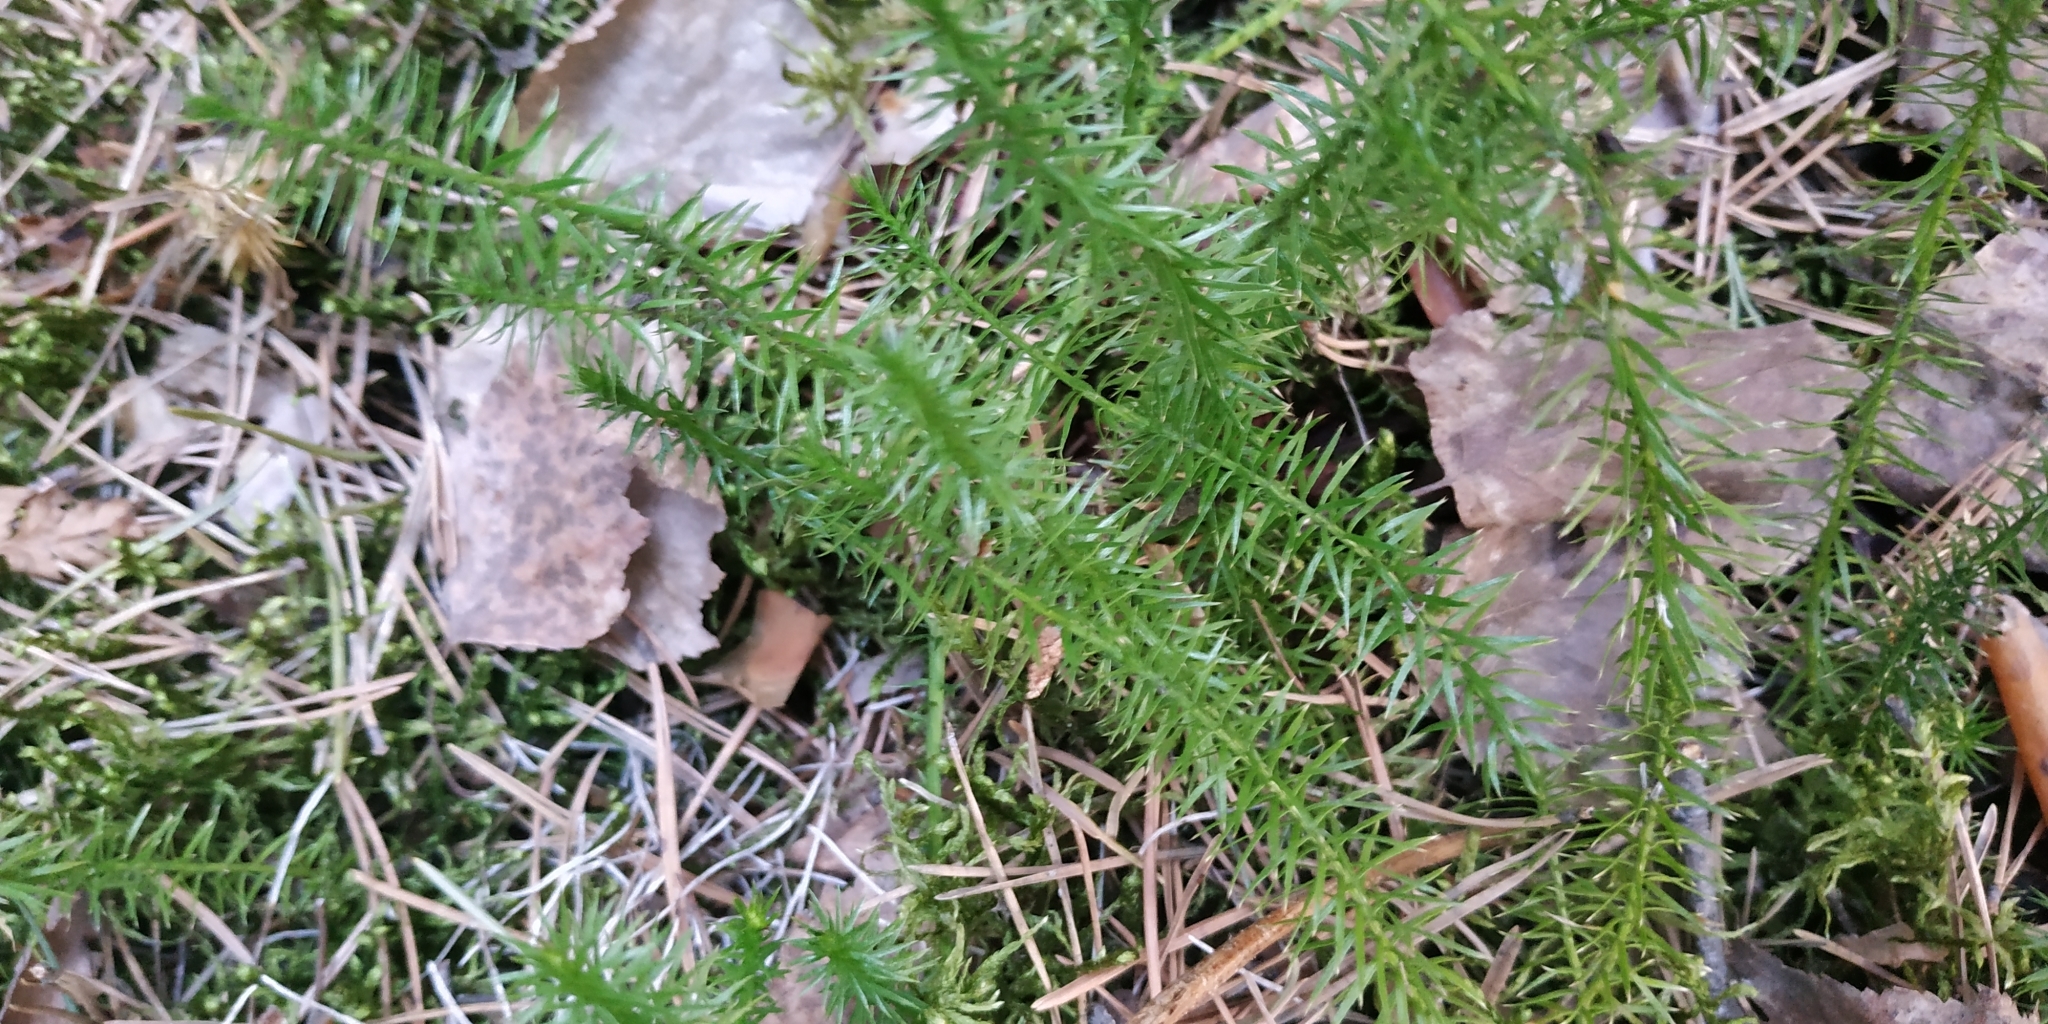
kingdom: Plantae
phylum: Tracheophyta
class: Lycopodiopsida
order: Lycopodiales
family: Lycopodiaceae
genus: Spinulum
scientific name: Spinulum annotinum
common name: Interrupted club-moss
